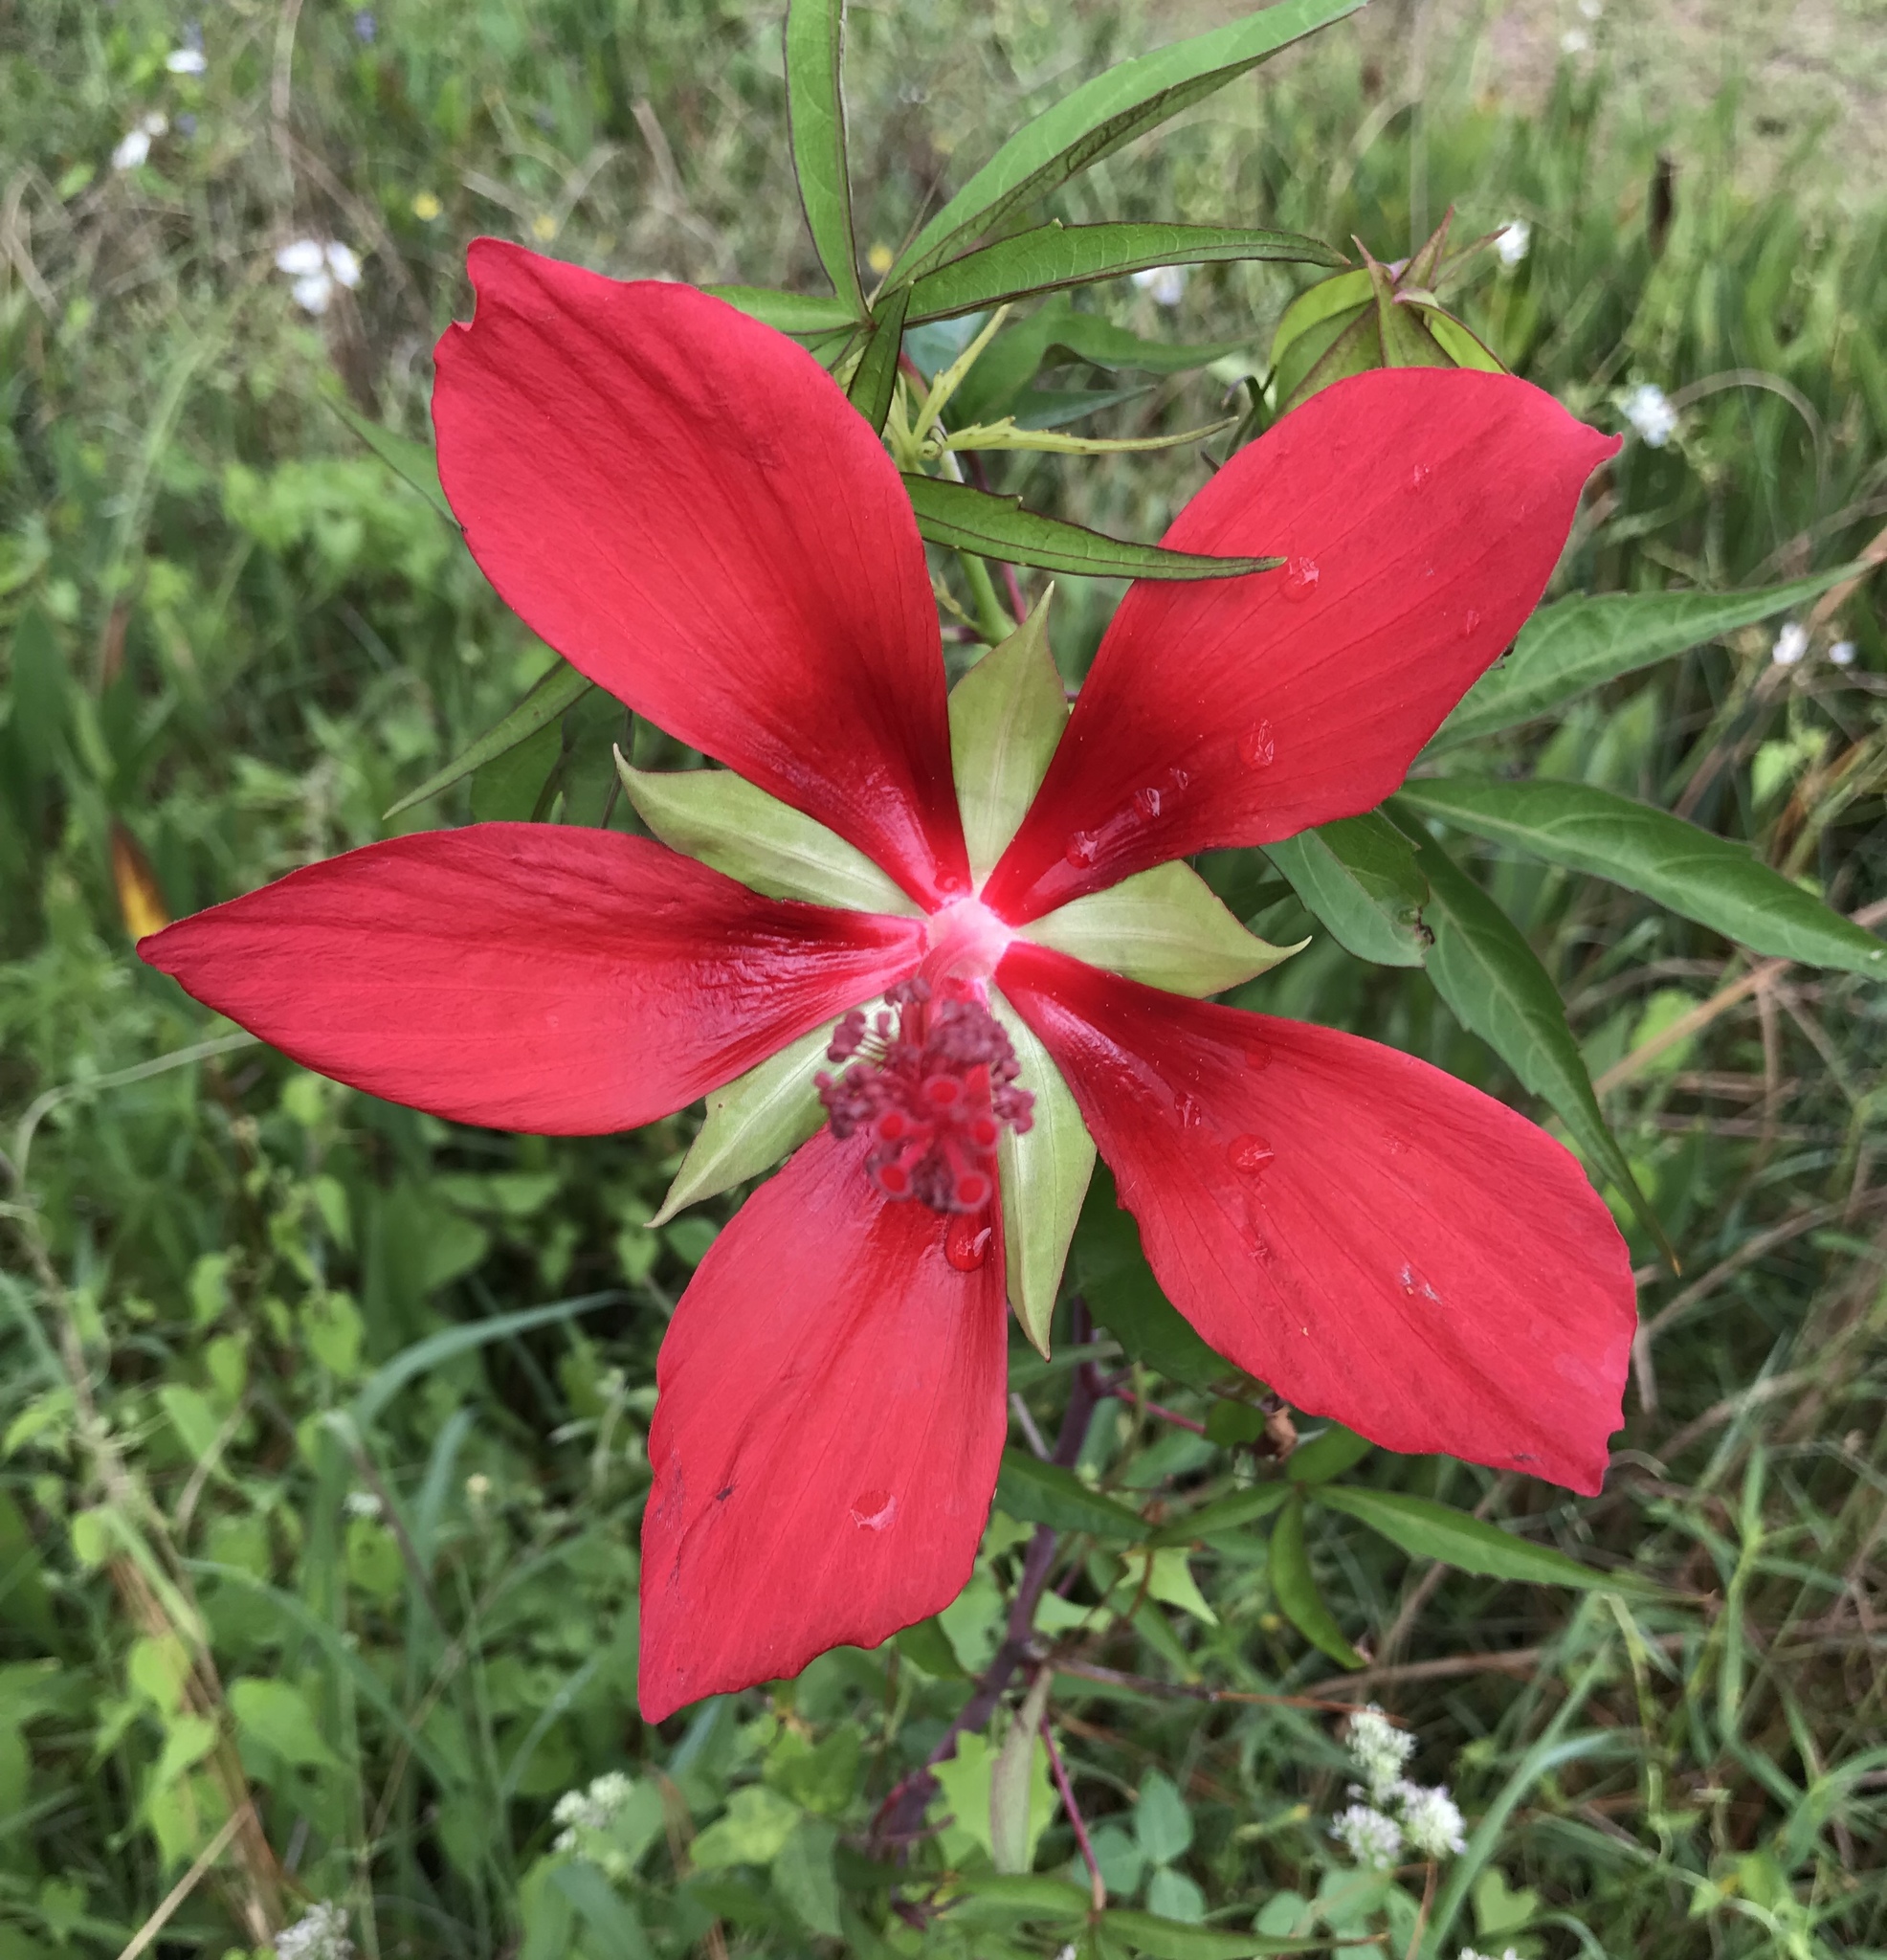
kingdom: Plantae
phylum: Tracheophyta
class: Magnoliopsida
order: Malvales
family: Malvaceae
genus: Hibiscus
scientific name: Hibiscus coccineus
